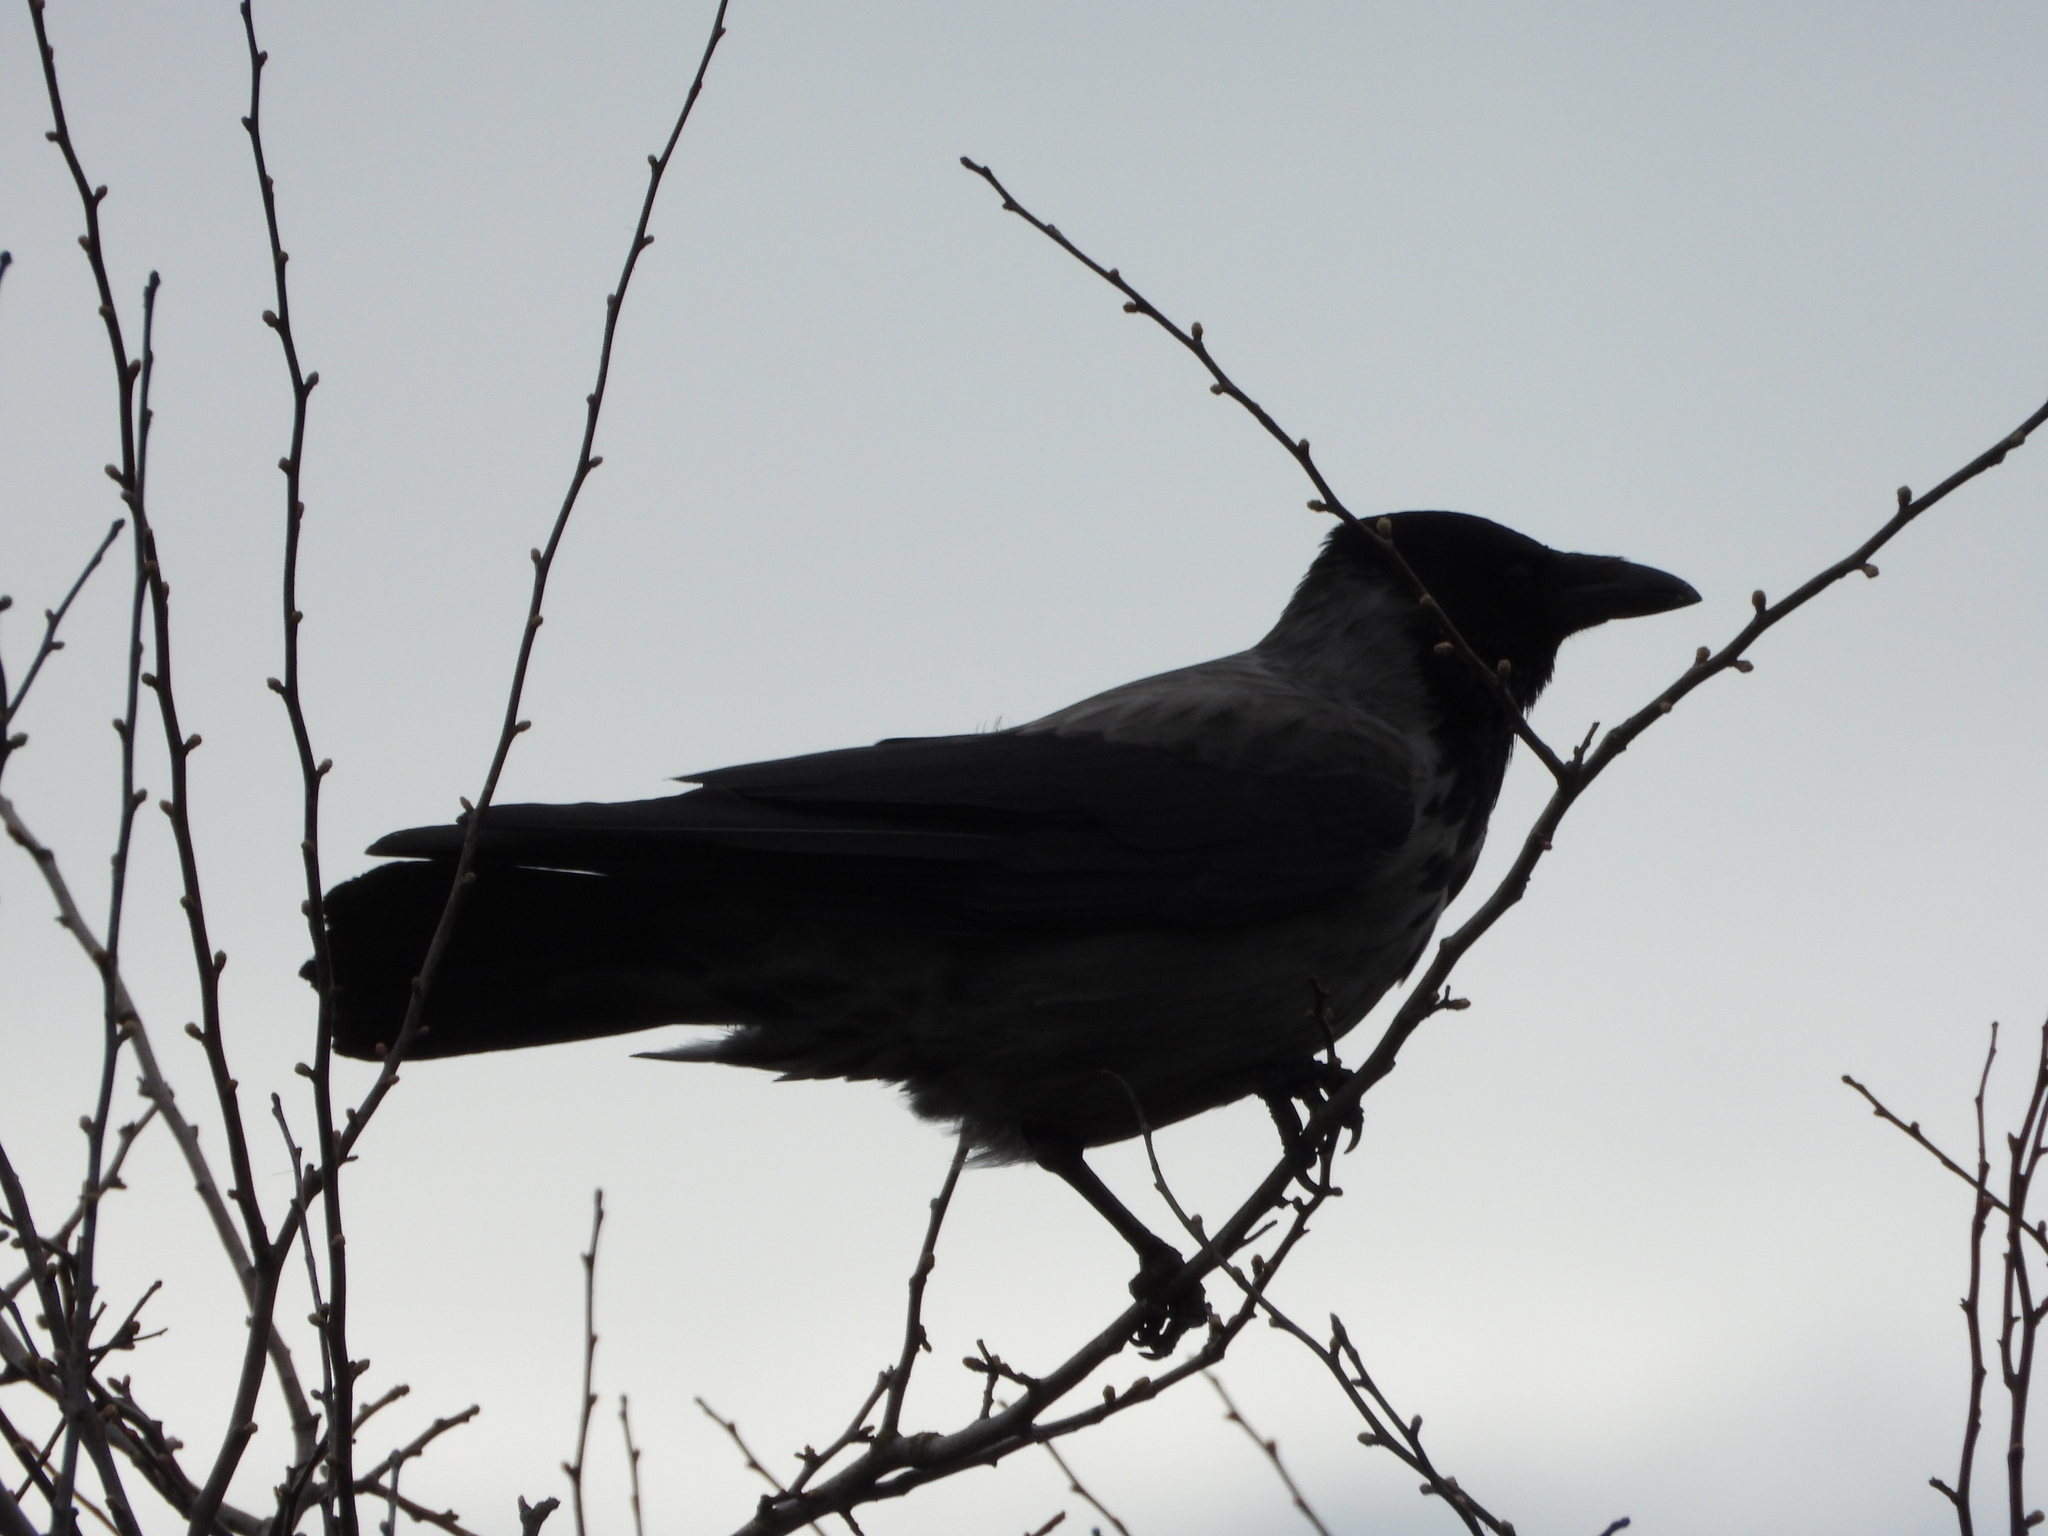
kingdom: Animalia
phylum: Chordata
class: Aves
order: Passeriformes
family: Corvidae
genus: Corvus
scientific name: Corvus
